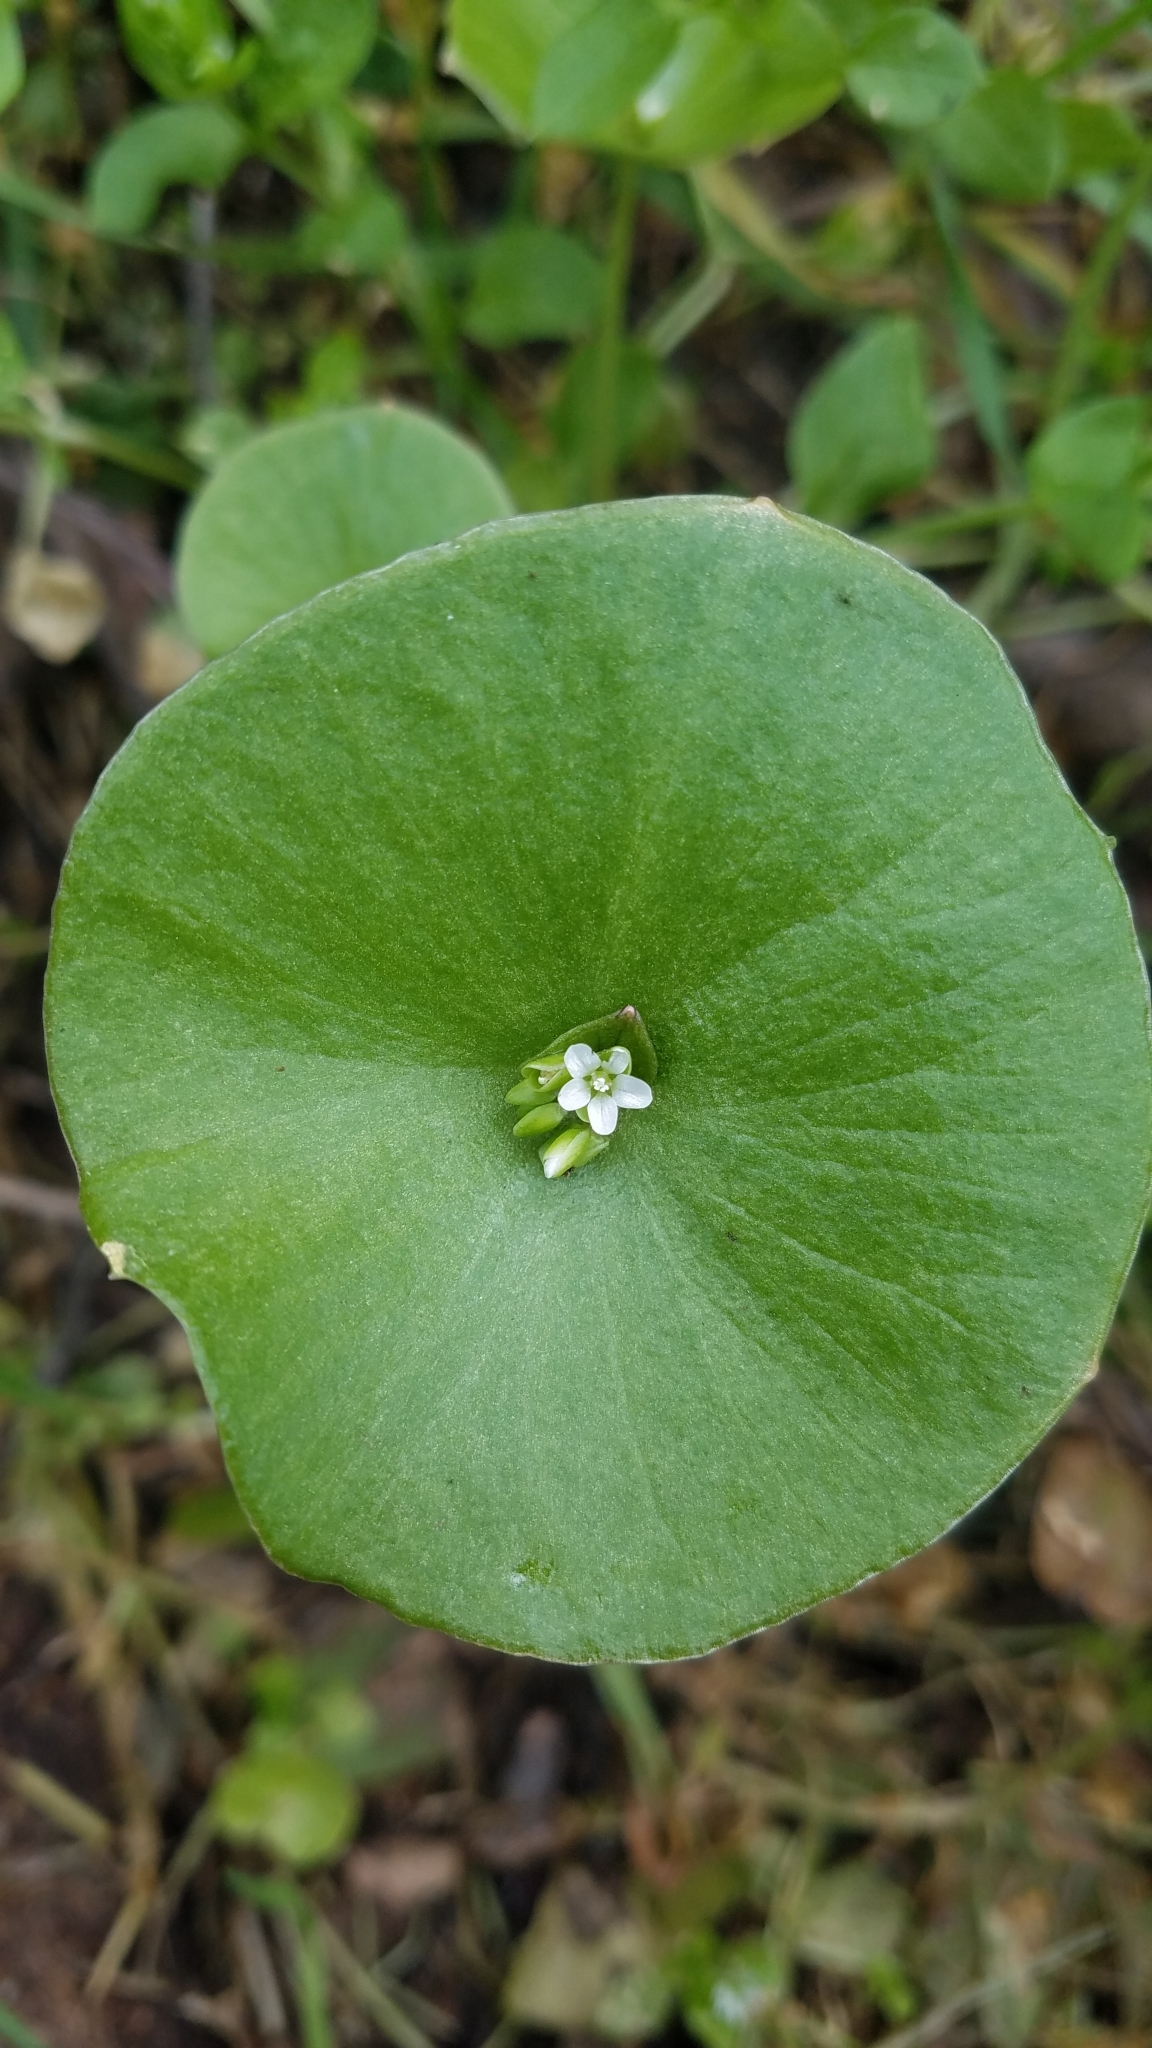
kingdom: Plantae
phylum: Tracheophyta
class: Magnoliopsida
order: Caryophyllales
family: Montiaceae
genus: Claytonia
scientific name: Claytonia perfoliata
